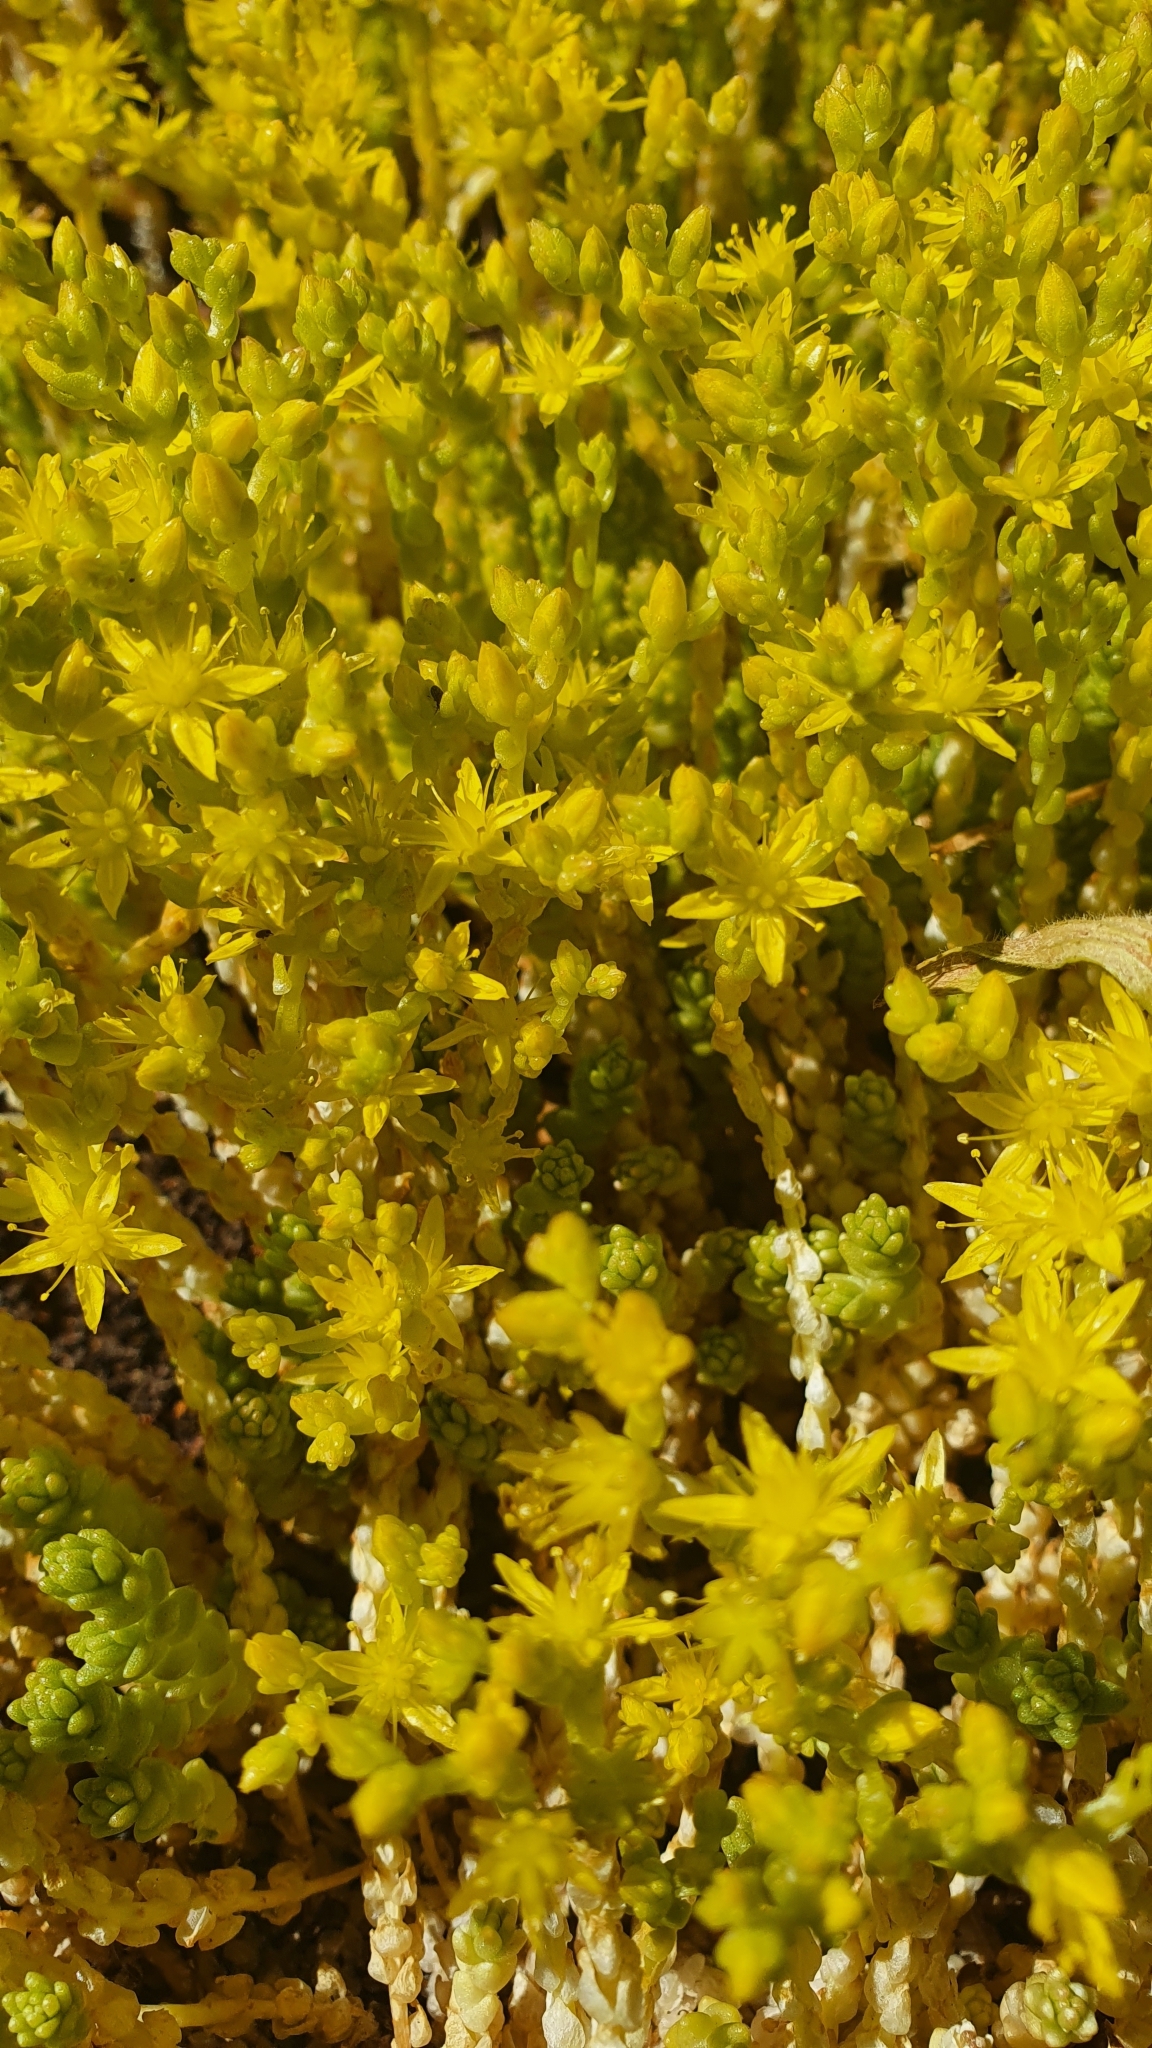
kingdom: Plantae
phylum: Tracheophyta
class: Magnoliopsida
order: Saxifragales
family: Crassulaceae
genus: Sedum
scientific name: Sedum acre
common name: Biting stonecrop
